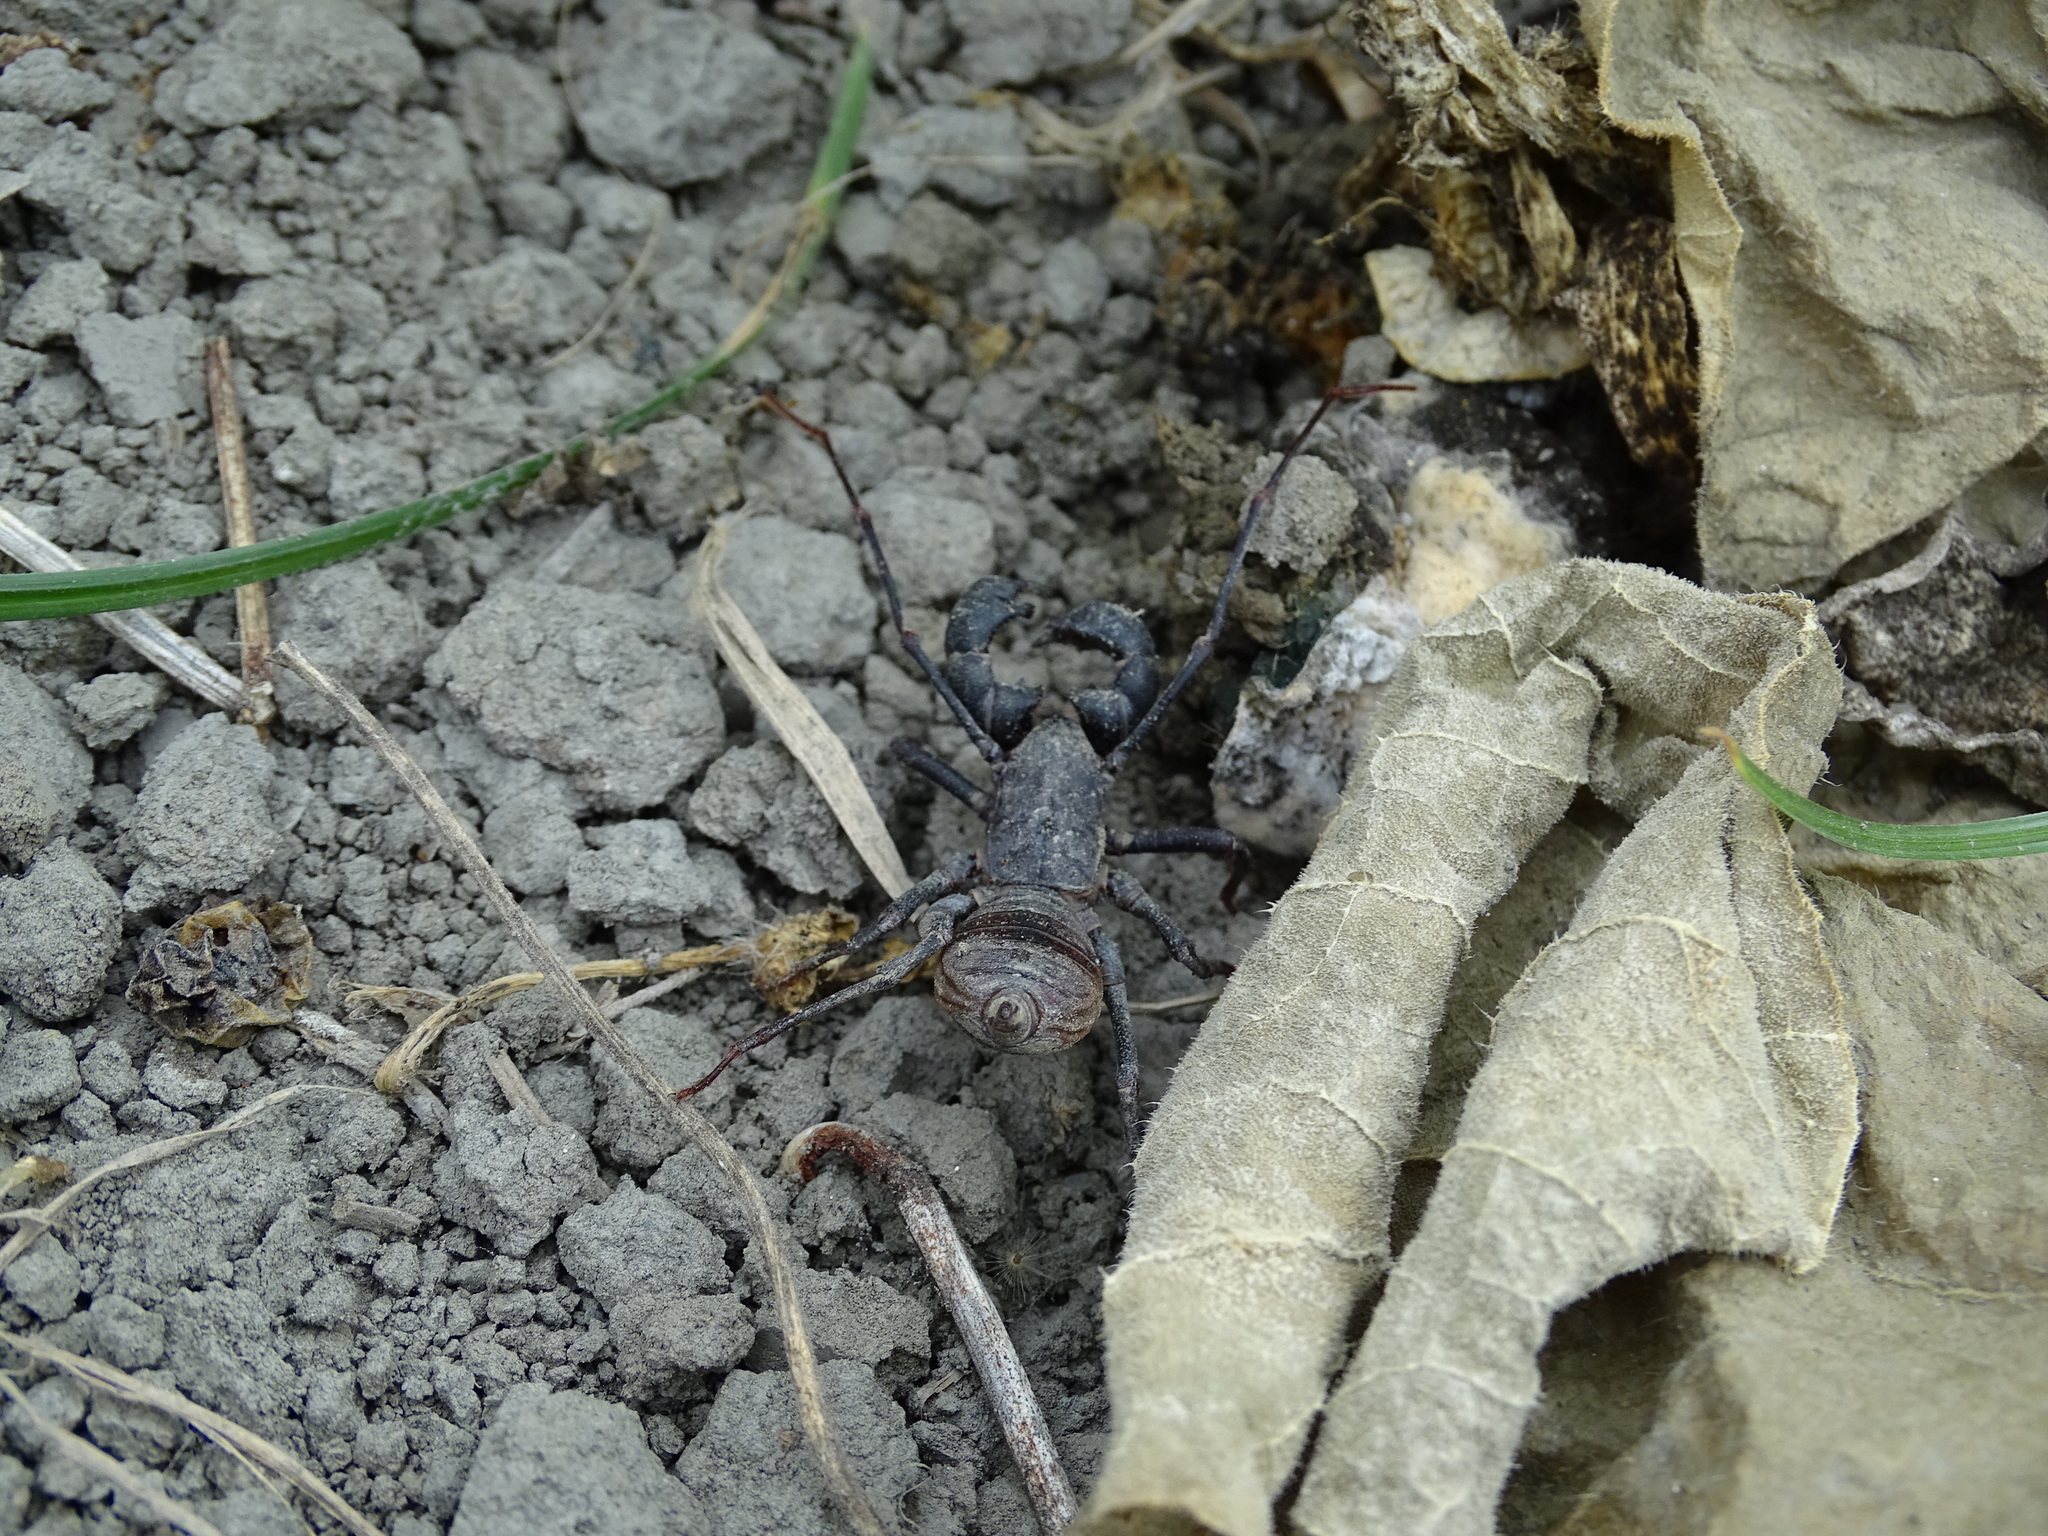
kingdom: Animalia
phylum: Arthropoda
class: Arachnida
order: Uropygi
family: Thelyphonidae
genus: Typopeltis
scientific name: Typopeltis crucifer
